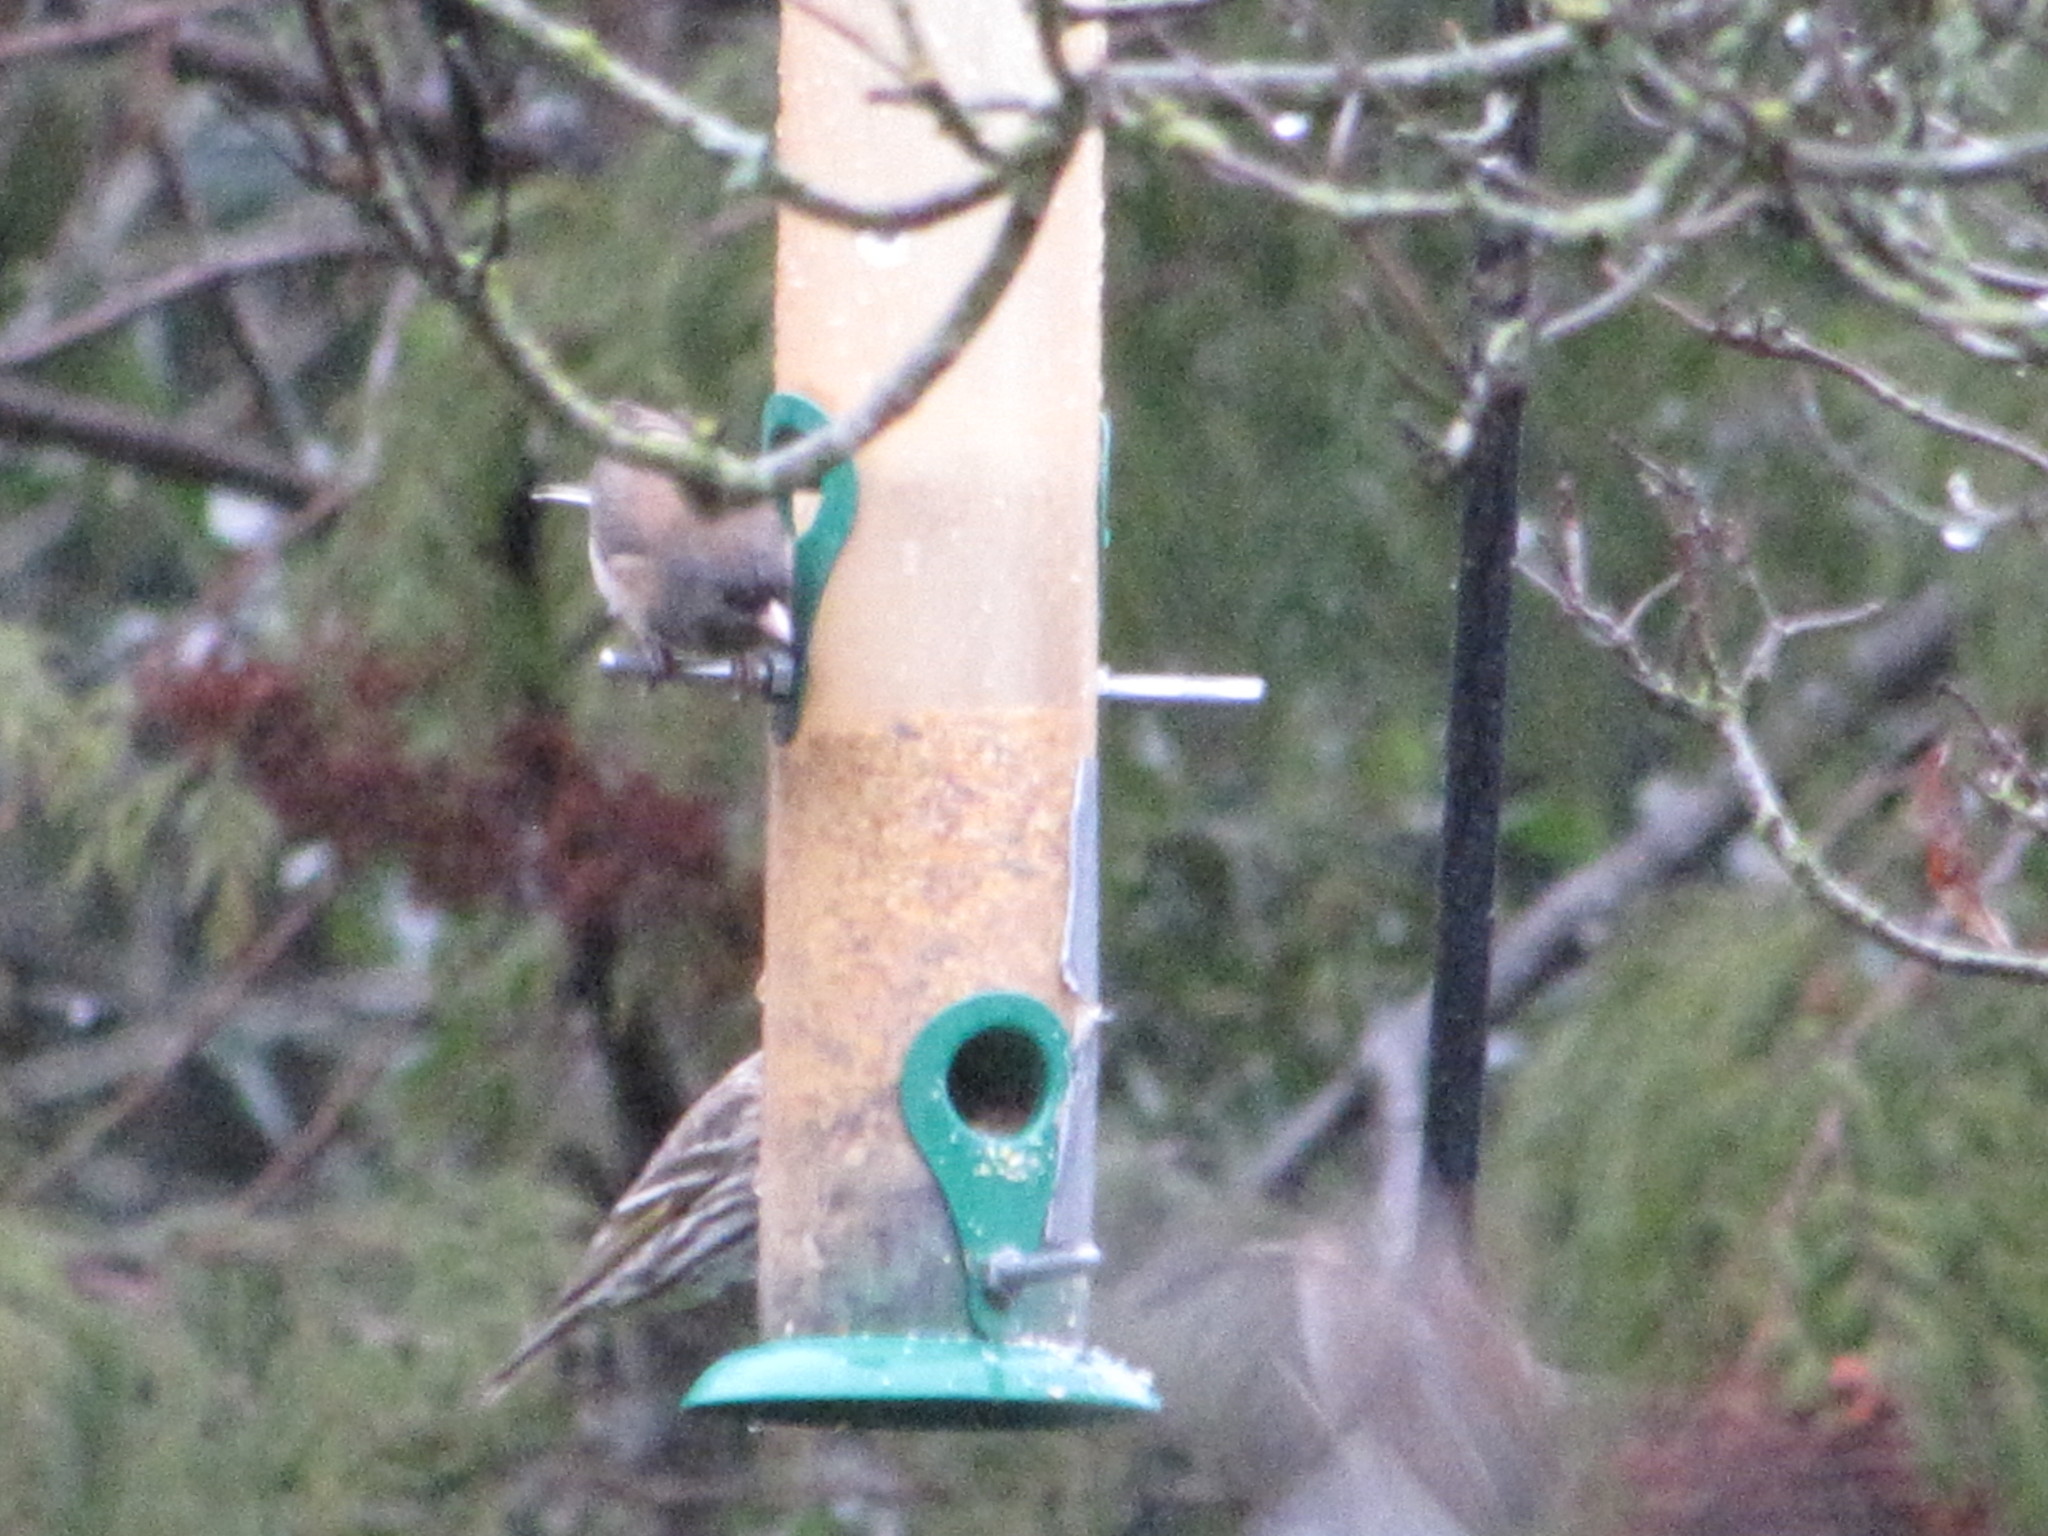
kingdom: Animalia
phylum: Chordata
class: Aves
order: Passeriformes
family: Fringillidae
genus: Spinus
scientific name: Spinus pinus
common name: Pine siskin
